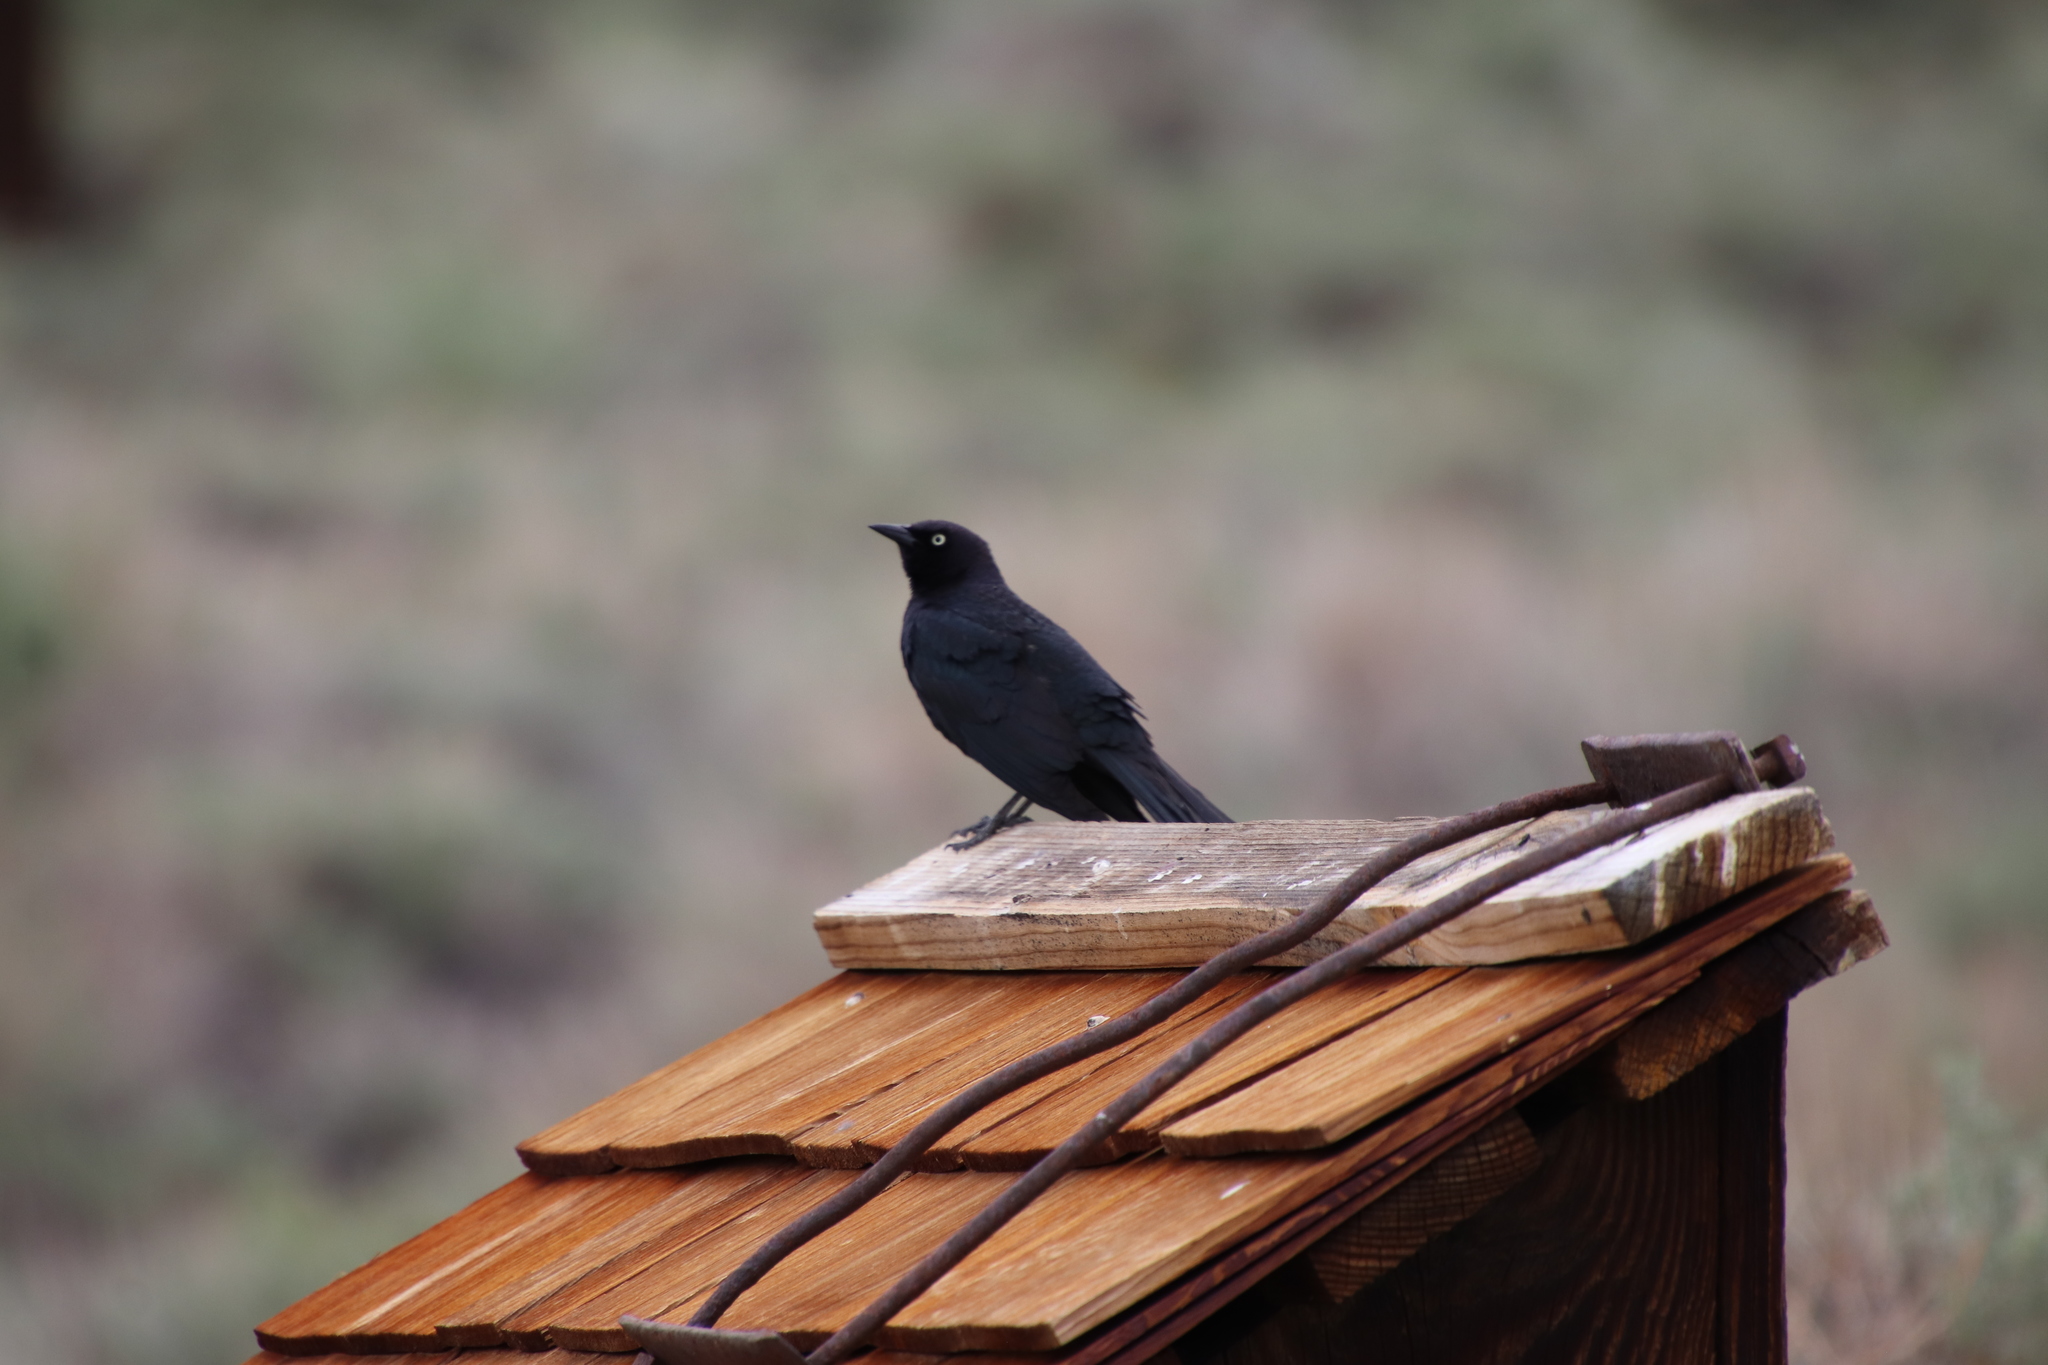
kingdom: Animalia
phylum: Chordata
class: Aves
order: Passeriformes
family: Icteridae
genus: Euphagus
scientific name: Euphagus cyanocephalus
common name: Brewer's blackbird
